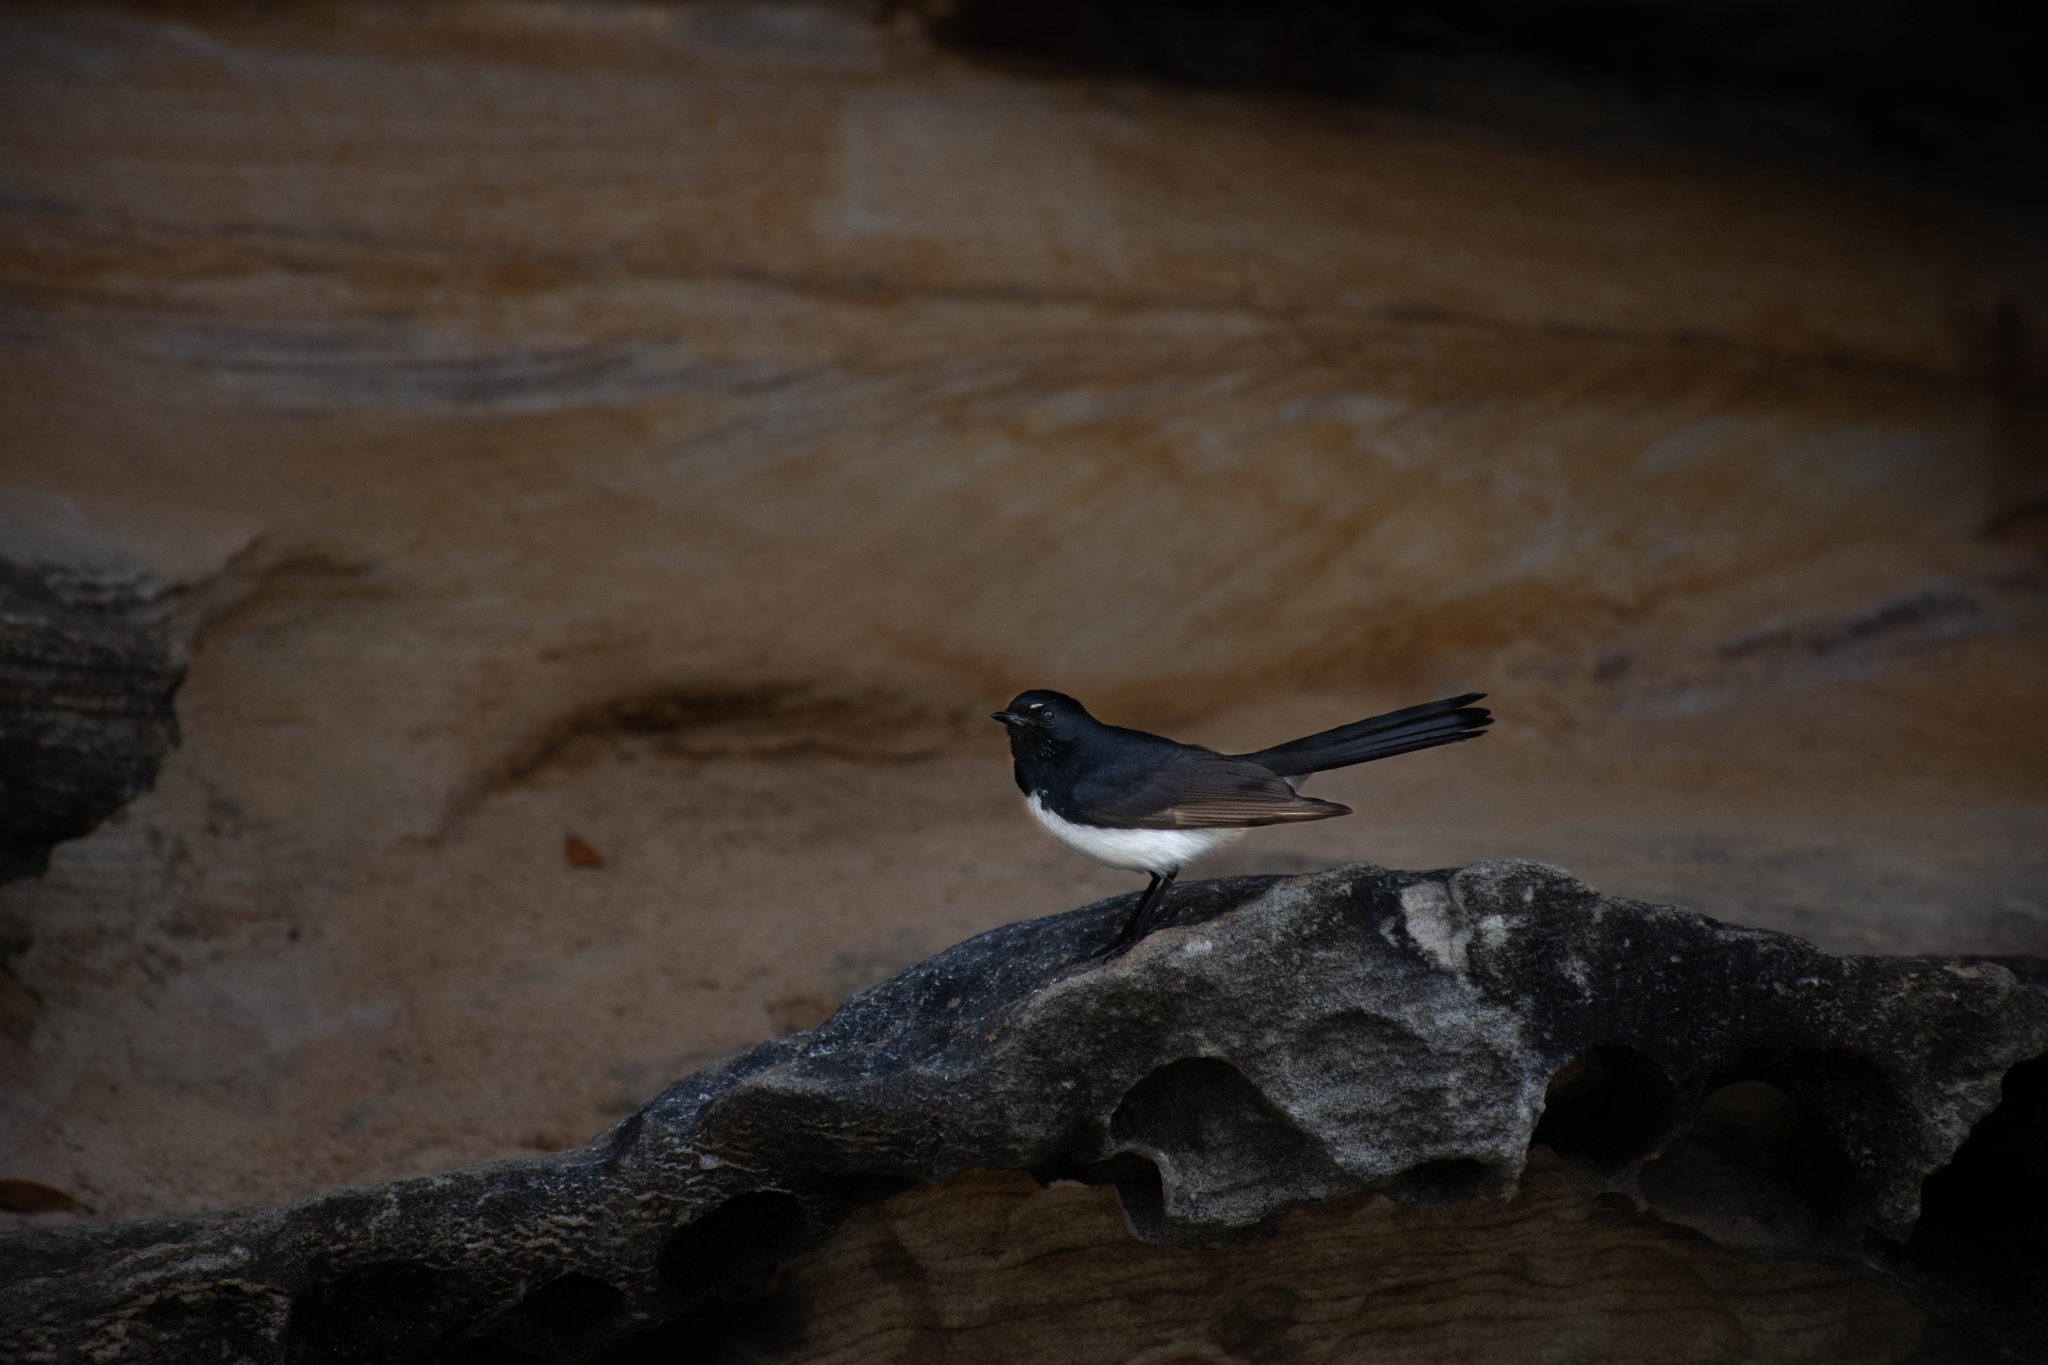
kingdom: Animalia
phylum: Chordata
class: Aves
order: Passeriformes
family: Rhipiduridae
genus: Rhipidura
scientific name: Rhipidura leucophrys
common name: Willie wagtail
